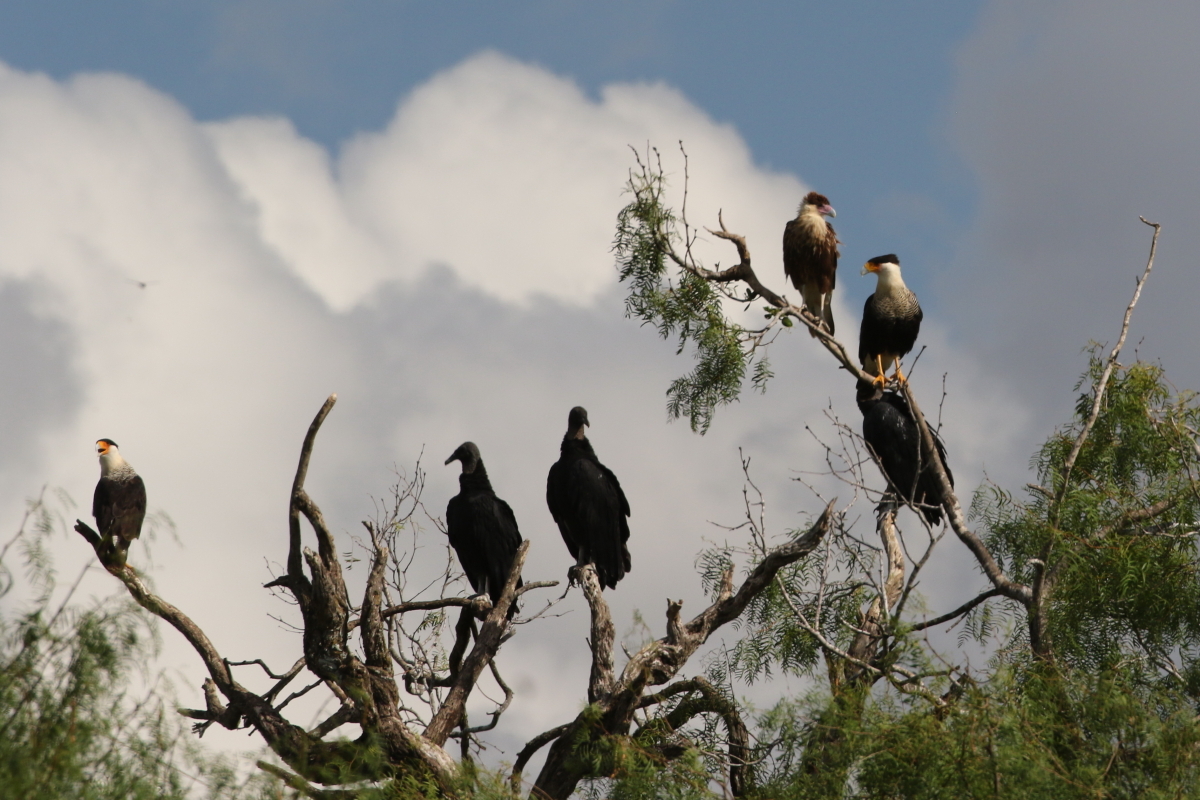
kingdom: Animalia
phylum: Chordata
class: Aves
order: Falconiformes
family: Falconidae
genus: Caracara
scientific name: Caracara plancus
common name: Southern caracara
